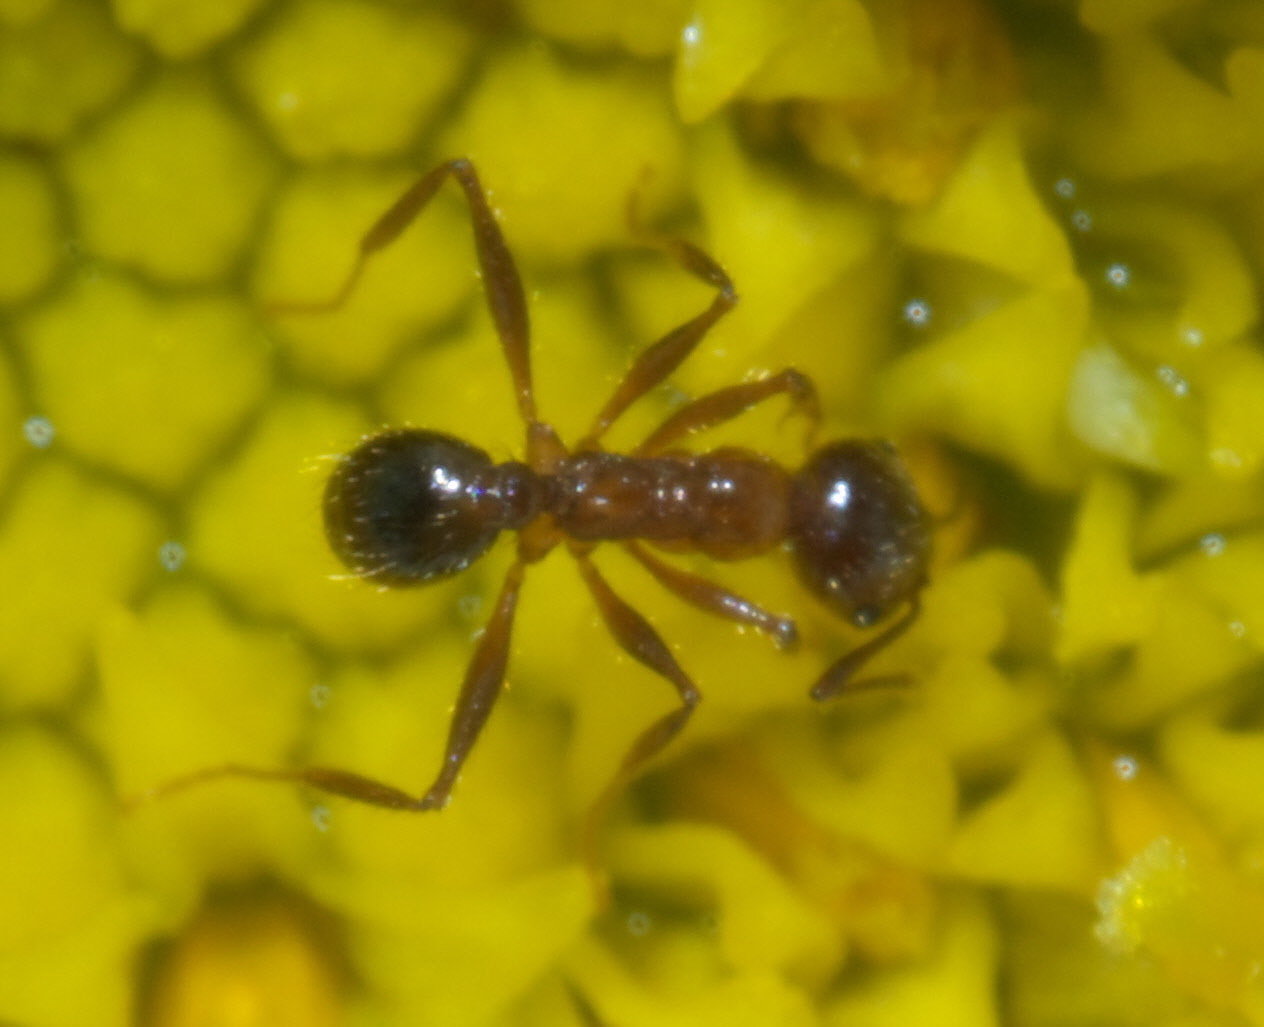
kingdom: Animalia
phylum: Arthropoda
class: Insecta
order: Hymenoptera
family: Formicidae
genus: Pheidole
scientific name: Pheidole dentata
